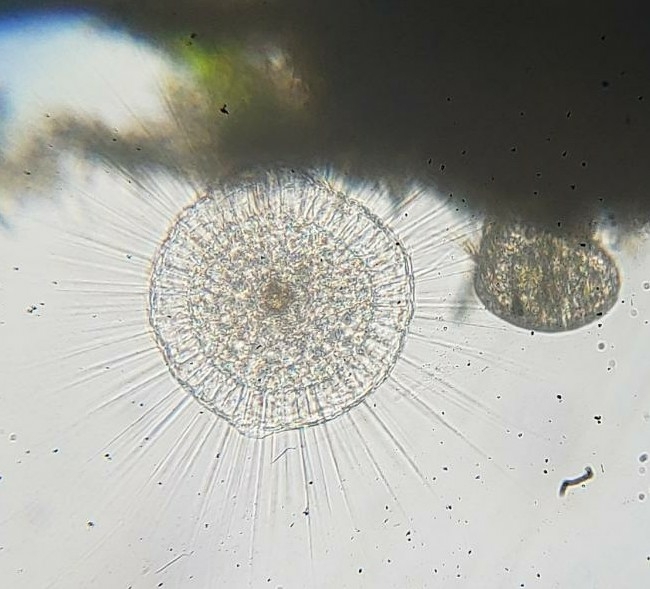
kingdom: Chromista
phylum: Ochrophyta
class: Raphidophyceae
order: Actinophryida
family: Actinosphaeriidae
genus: Actinosphaerium
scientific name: Actinosphaerium eichhorni
